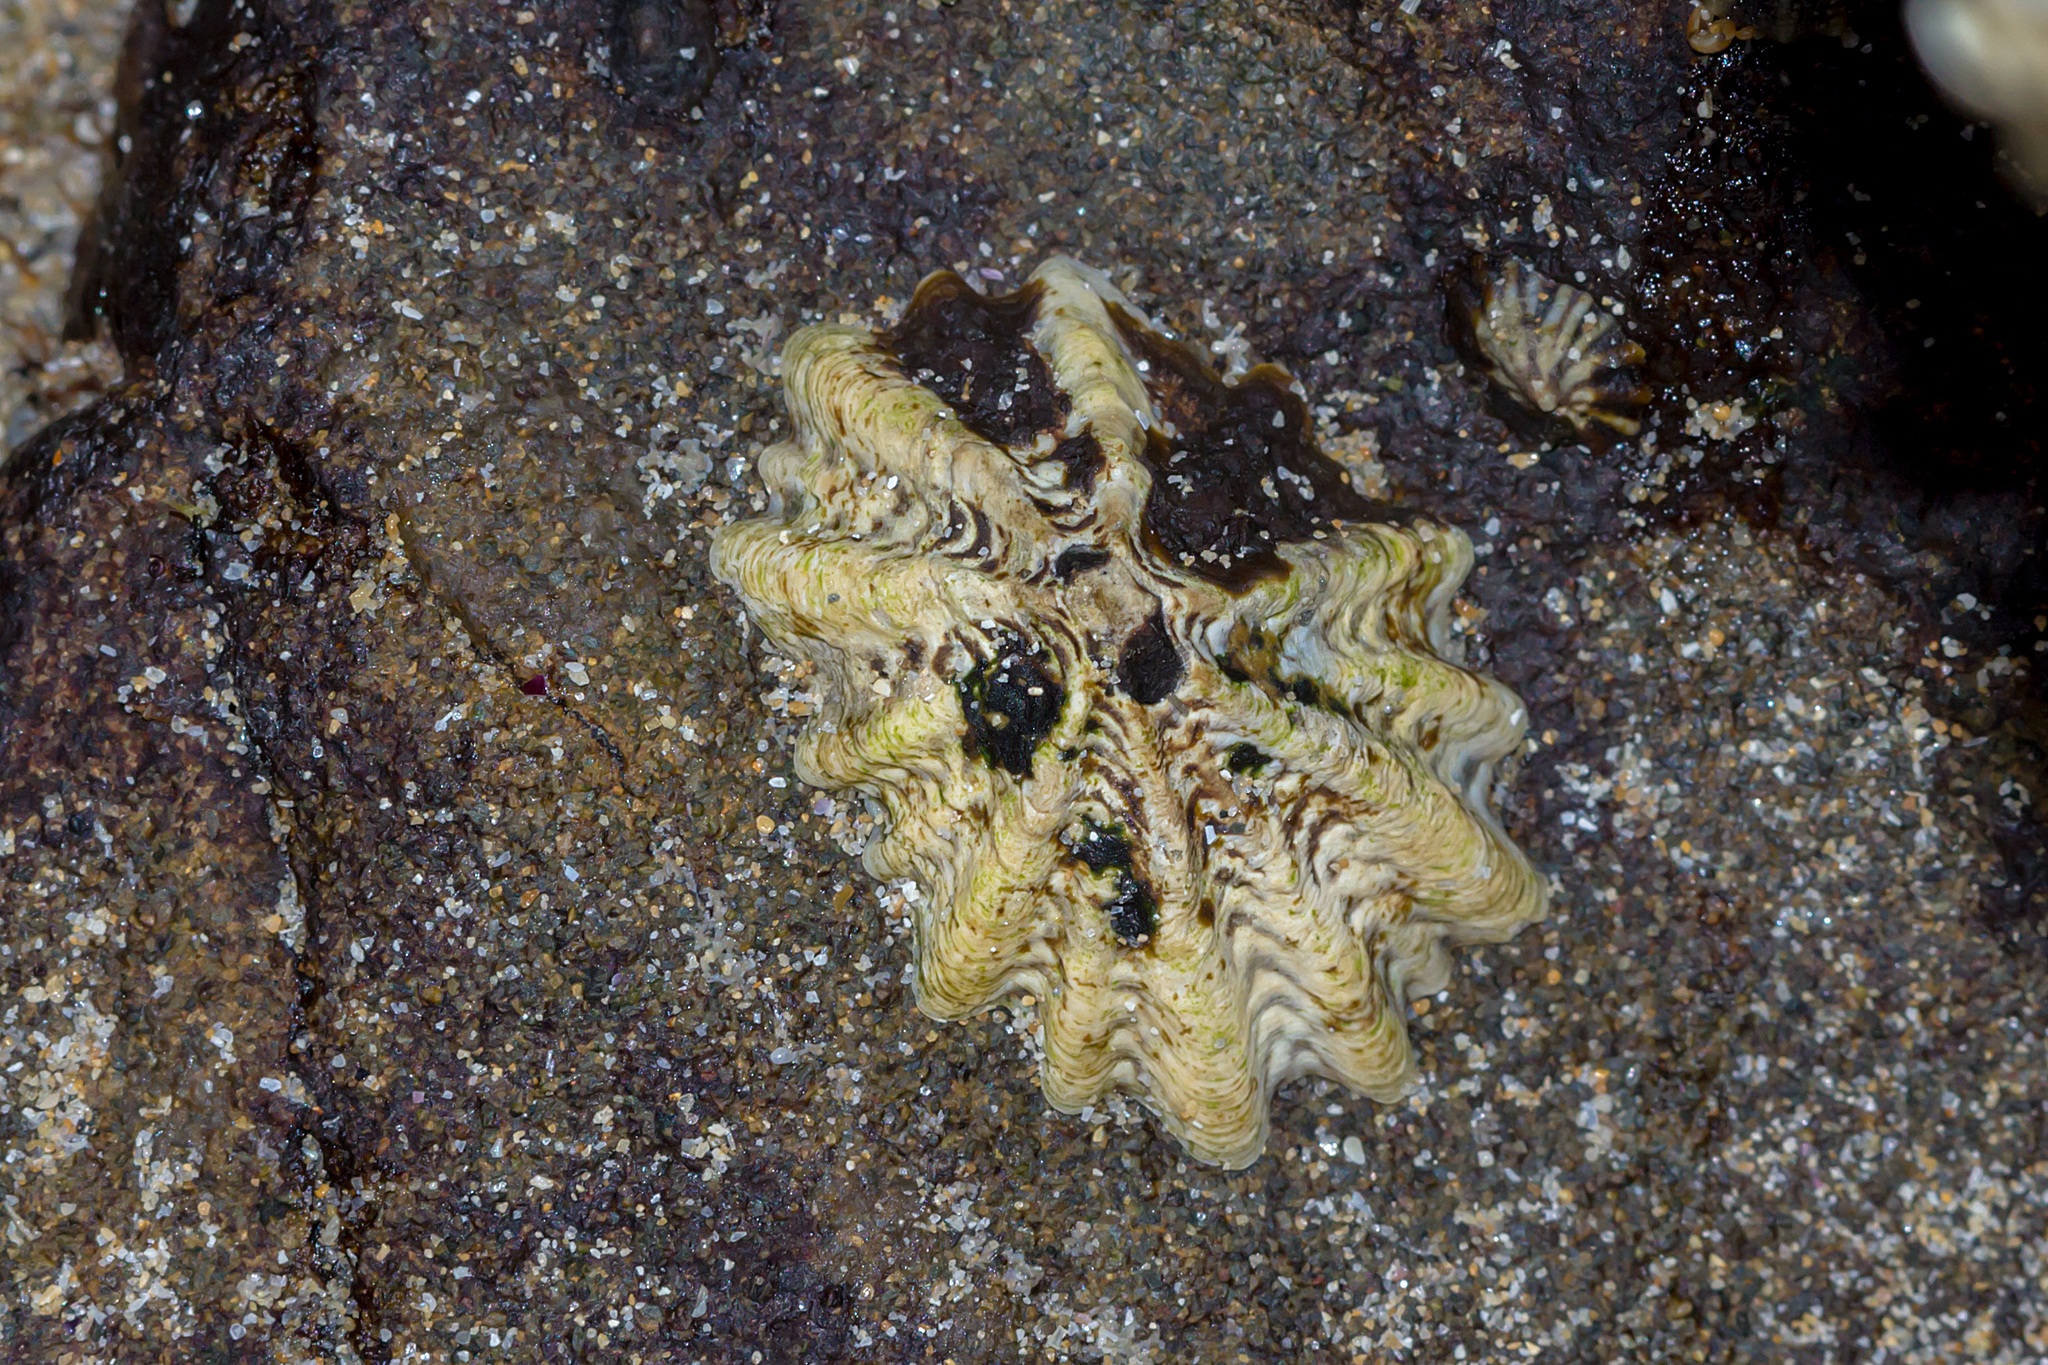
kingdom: Animalia
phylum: Mollusca
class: Gastropoda
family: Lottiidae
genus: Patelloida
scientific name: Patelloida alticostata
